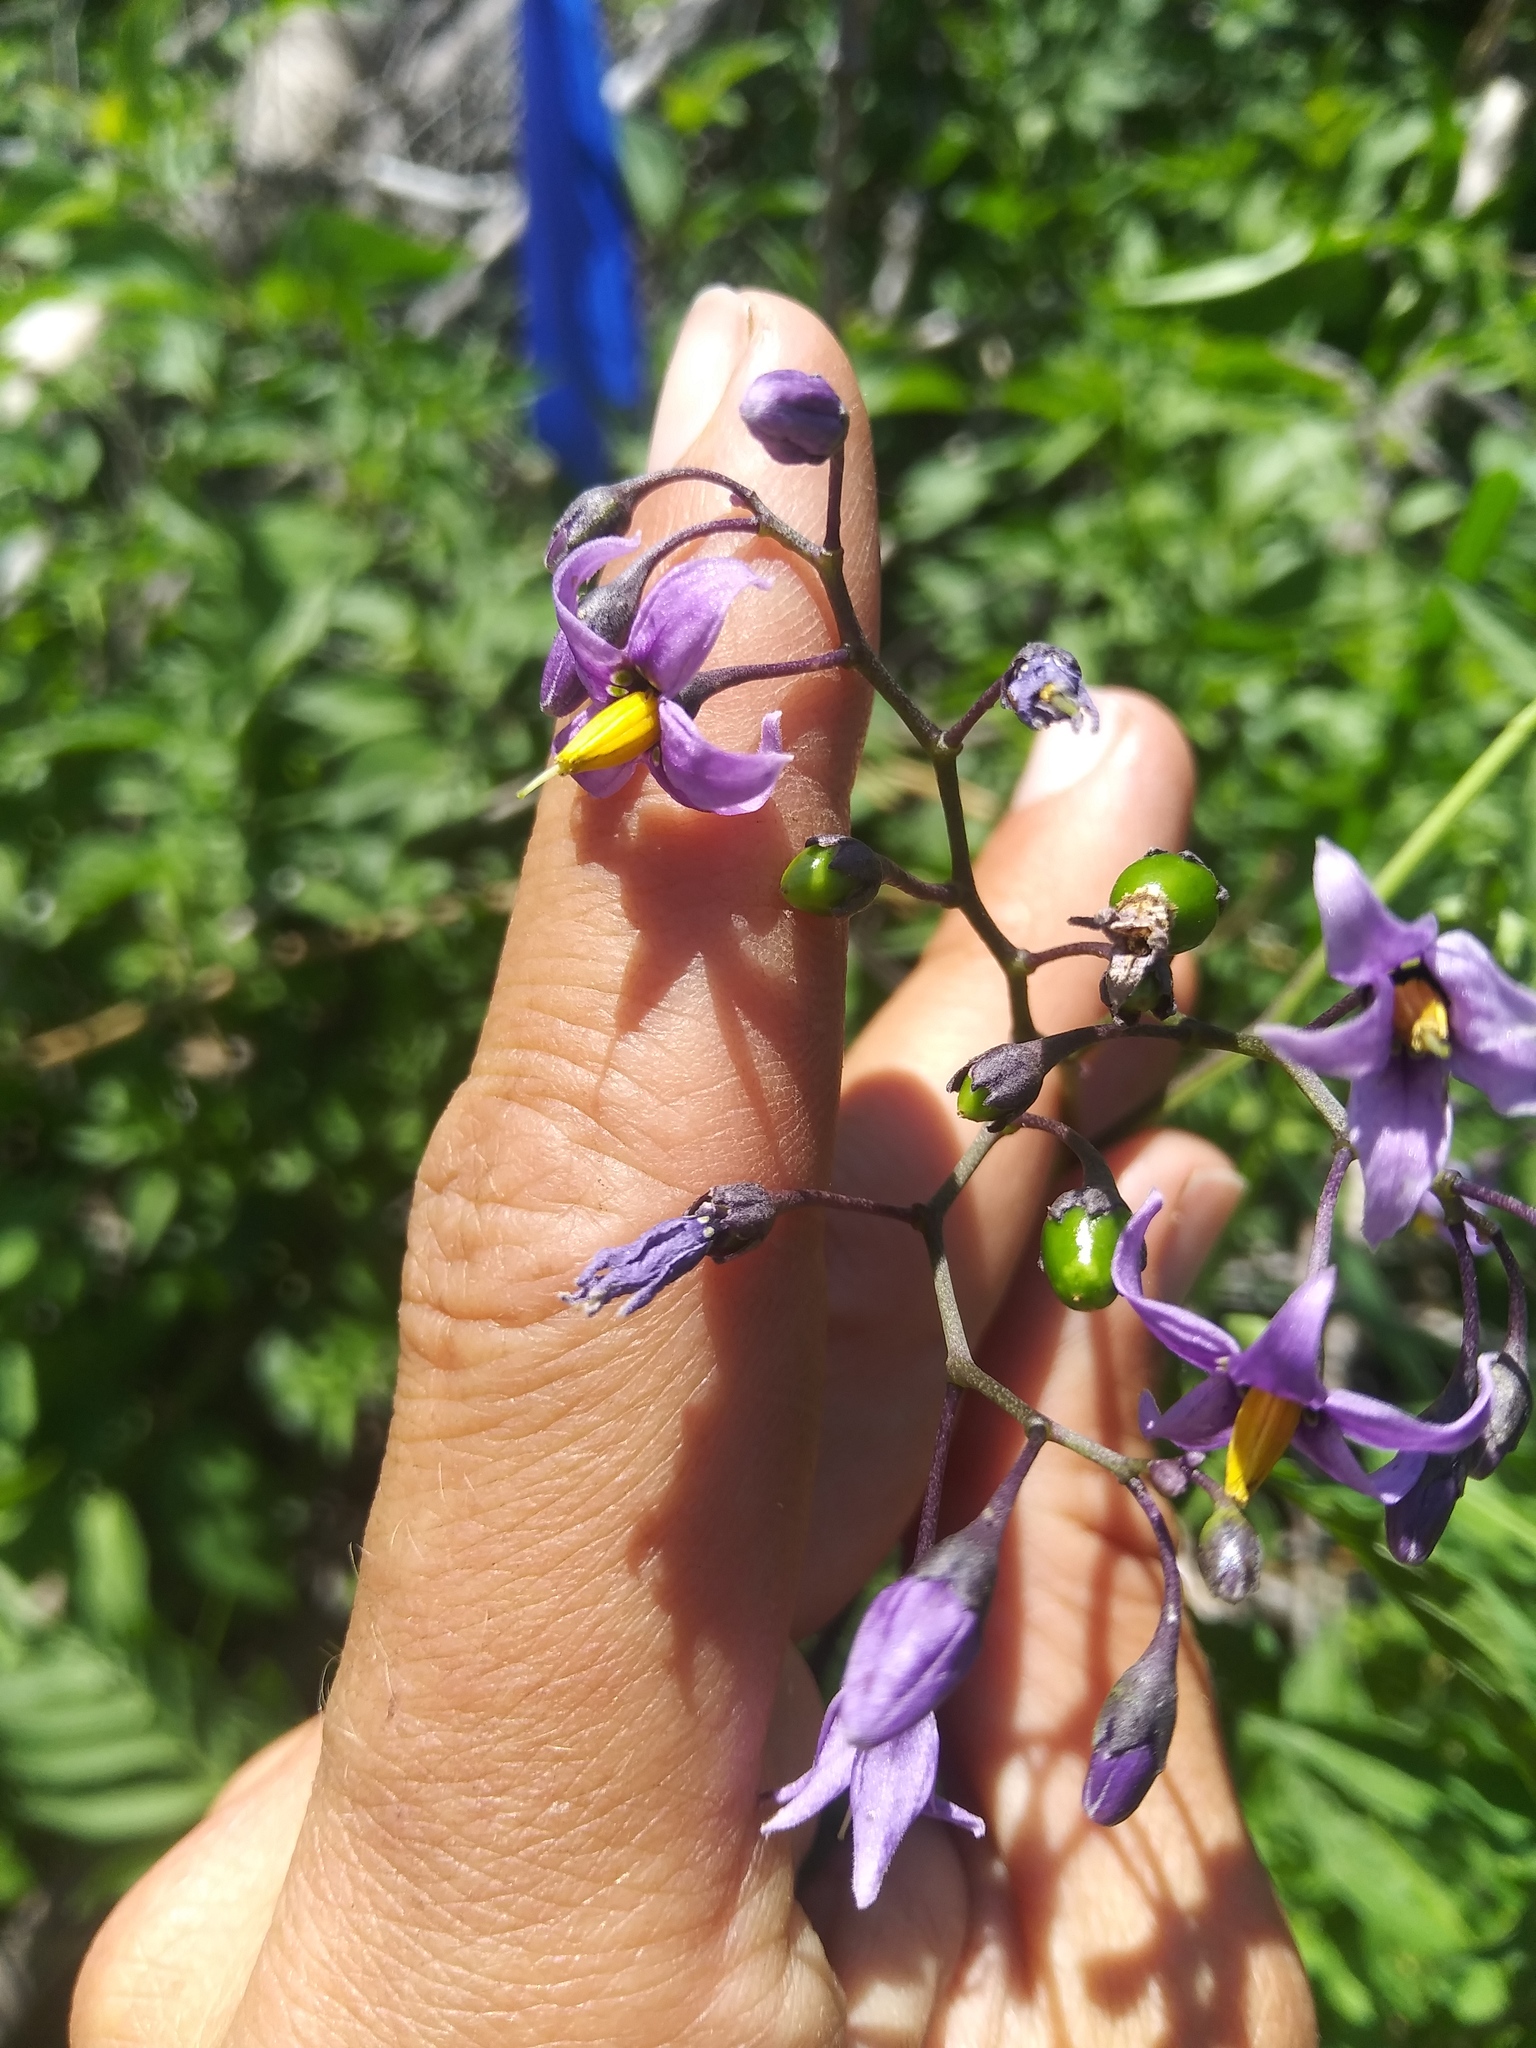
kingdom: Plantae
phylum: Tracheophyta
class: Magnoliopsida
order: Solanales
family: Solanaceae
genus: Solanum
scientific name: Solanum dulcamara
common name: Climbing nightshade
